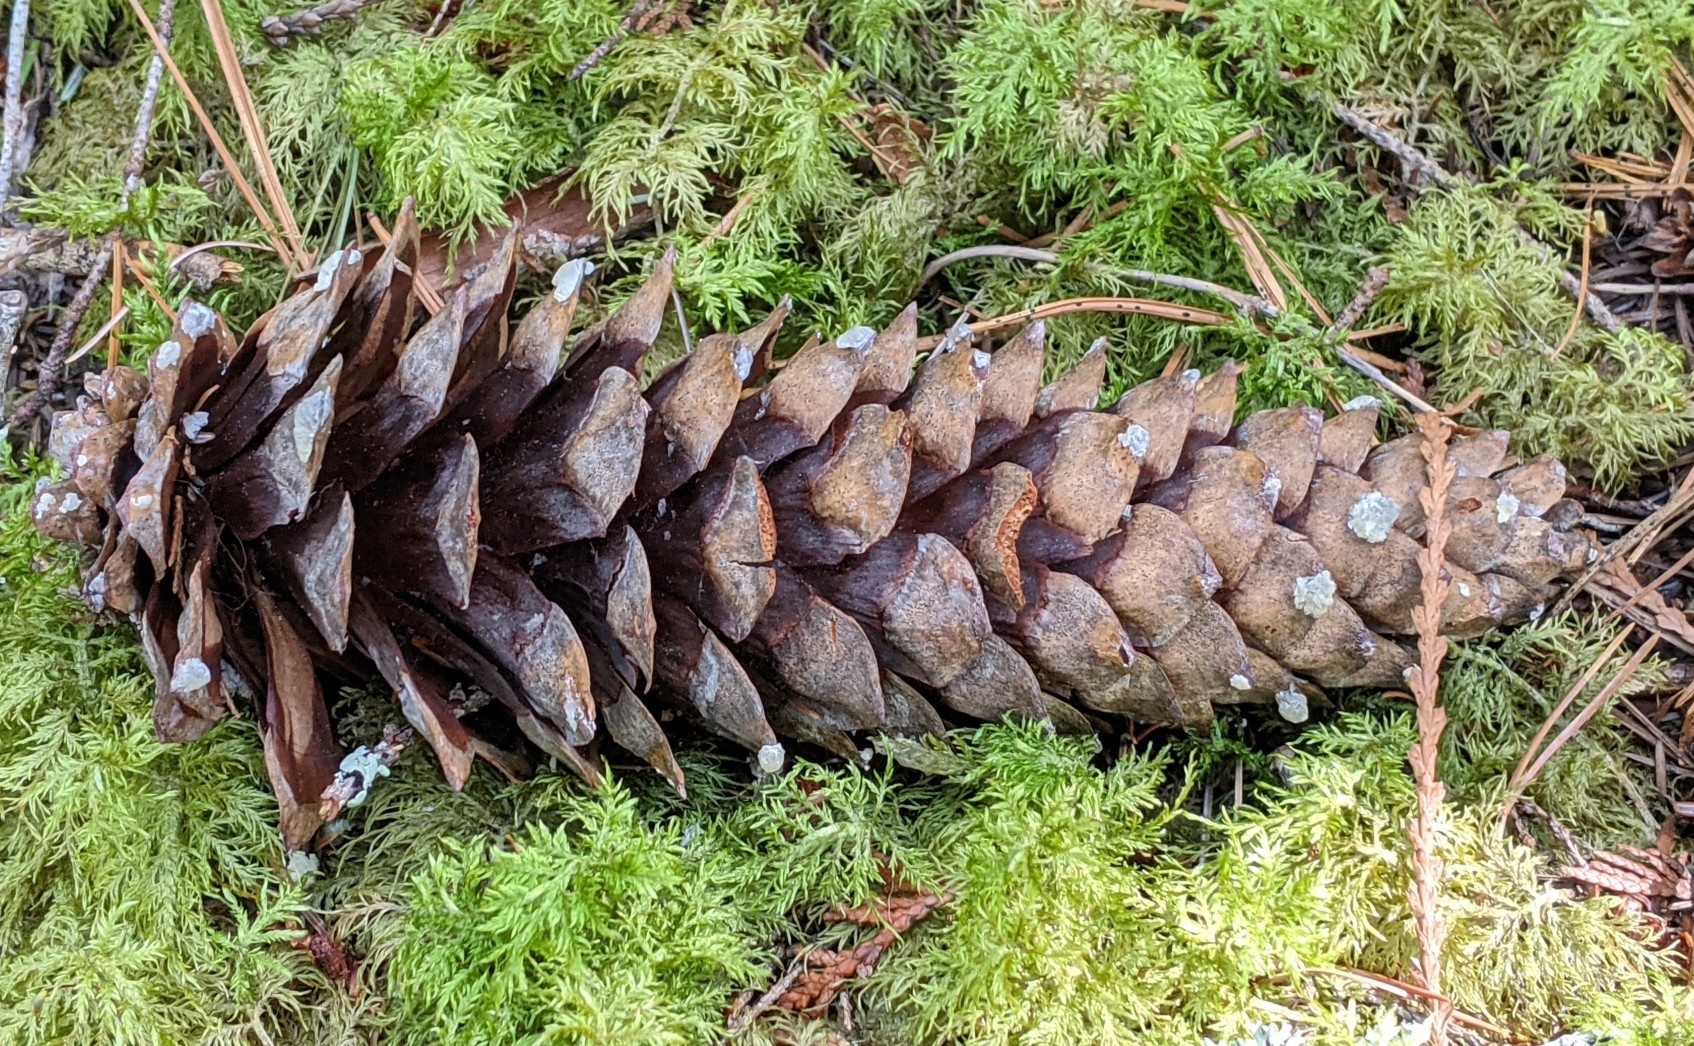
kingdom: Plantae
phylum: Tracheophyta
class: Pinopsida
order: Pinales
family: Pinaceae
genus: Pinus
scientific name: Pinus monticola
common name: Western white pine
